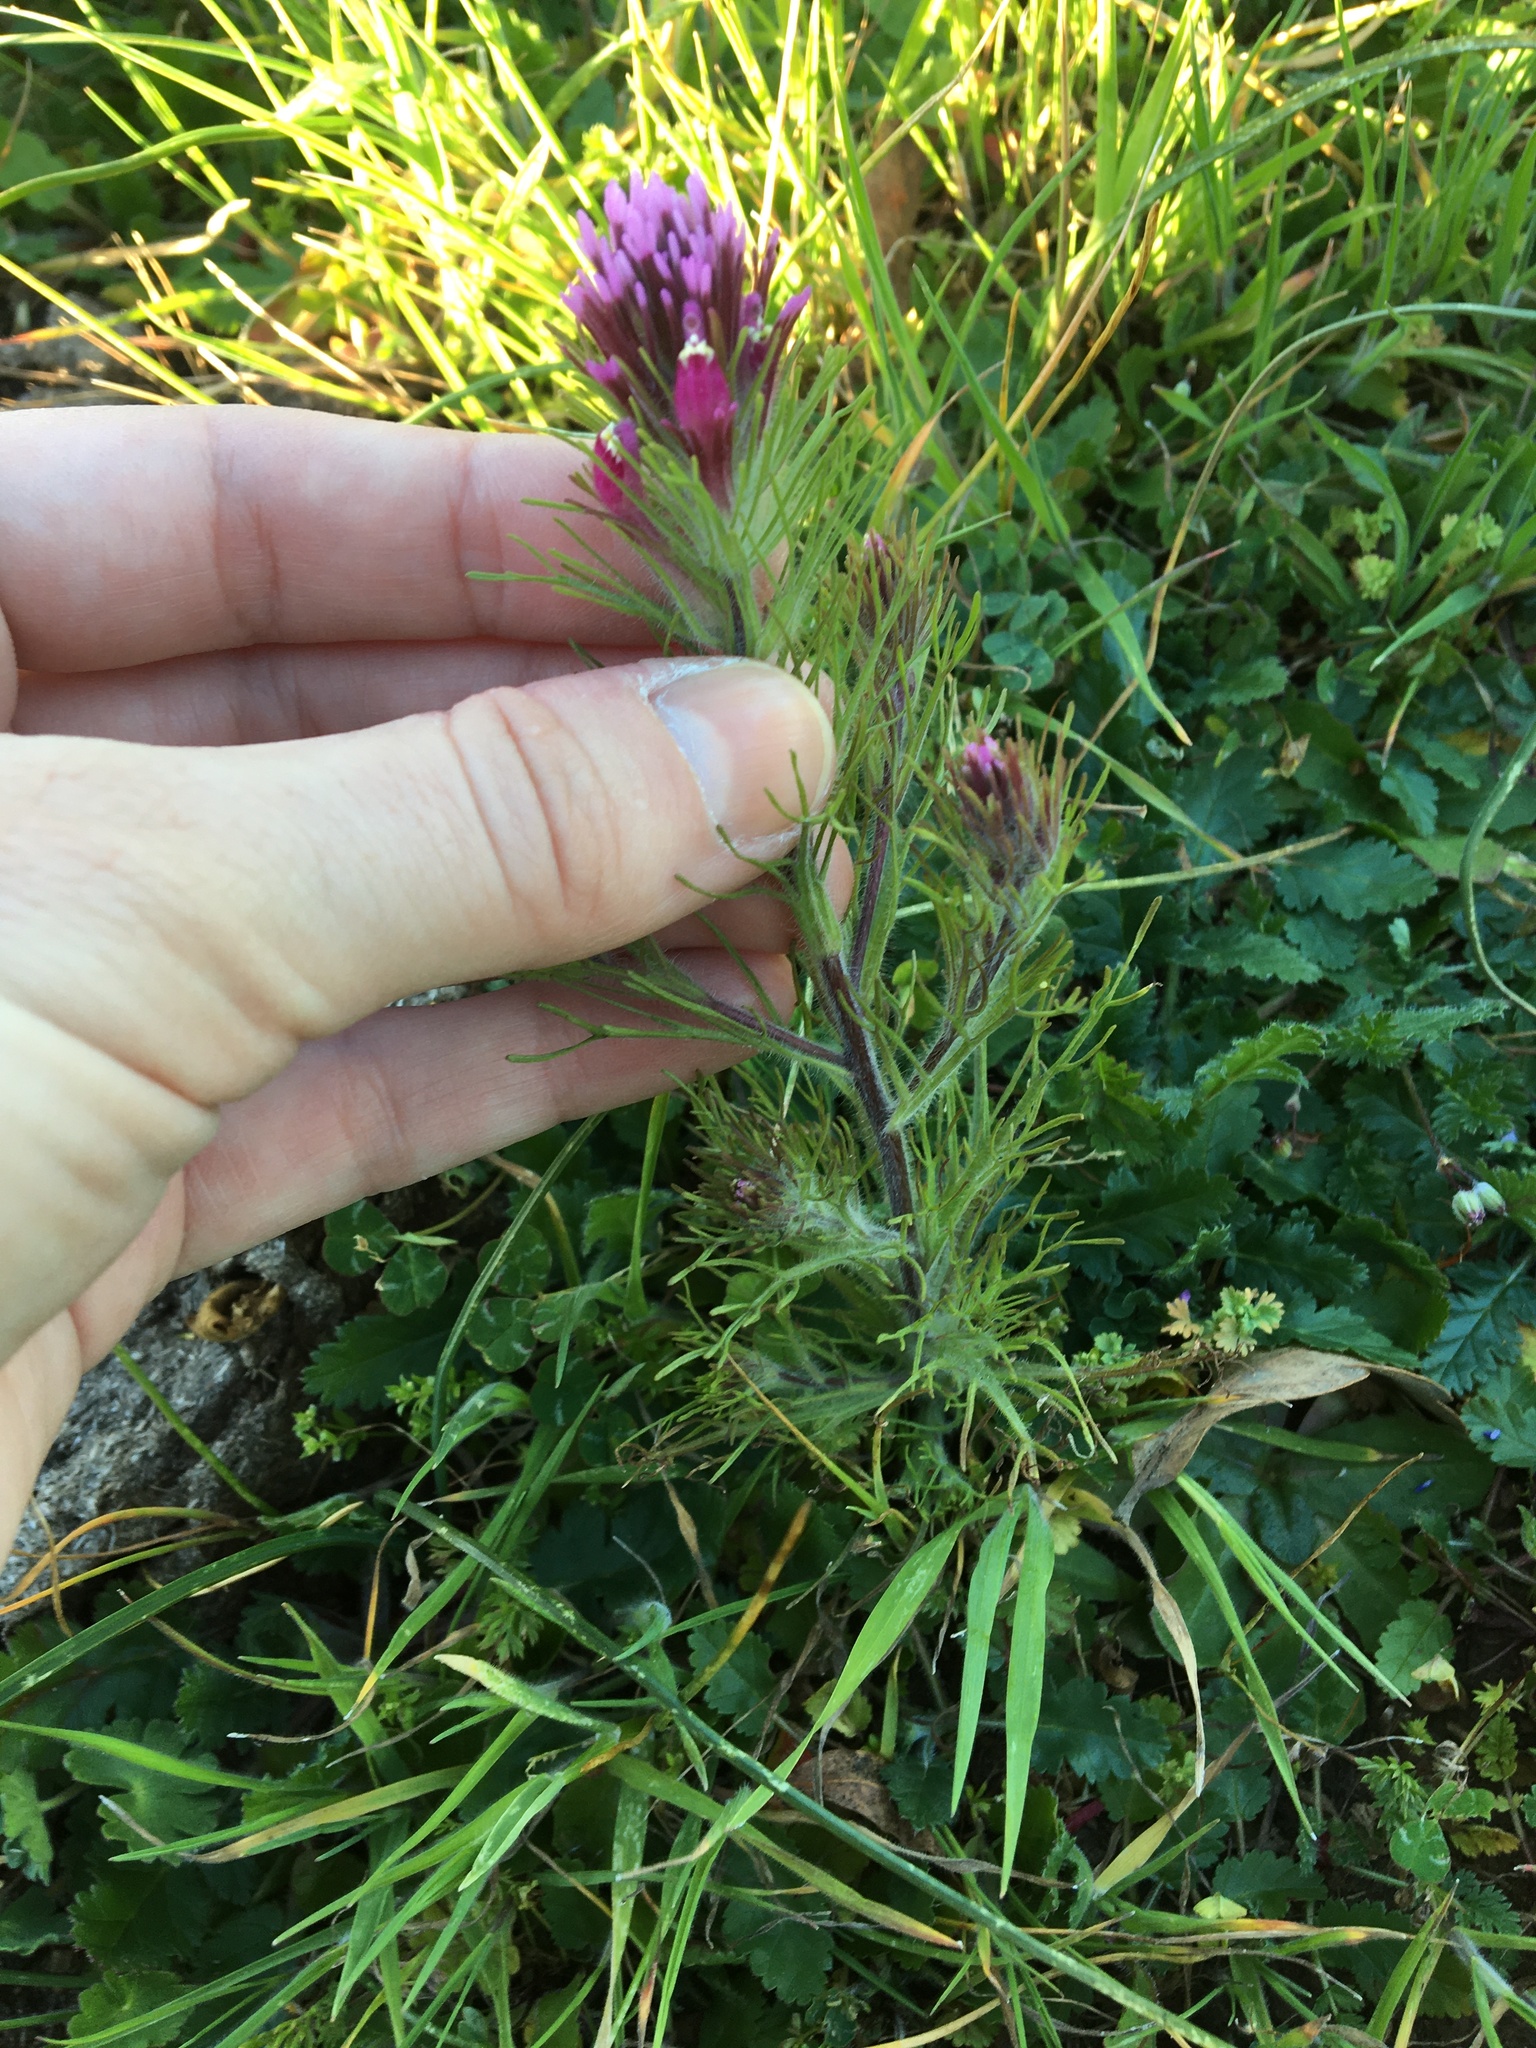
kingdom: Plantae
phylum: Tracheophyta
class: Magnoliopsida
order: Lamiales
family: Orobanchaceae
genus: Castilleja
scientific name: Castilleja exserta
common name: Purple owl-clover
